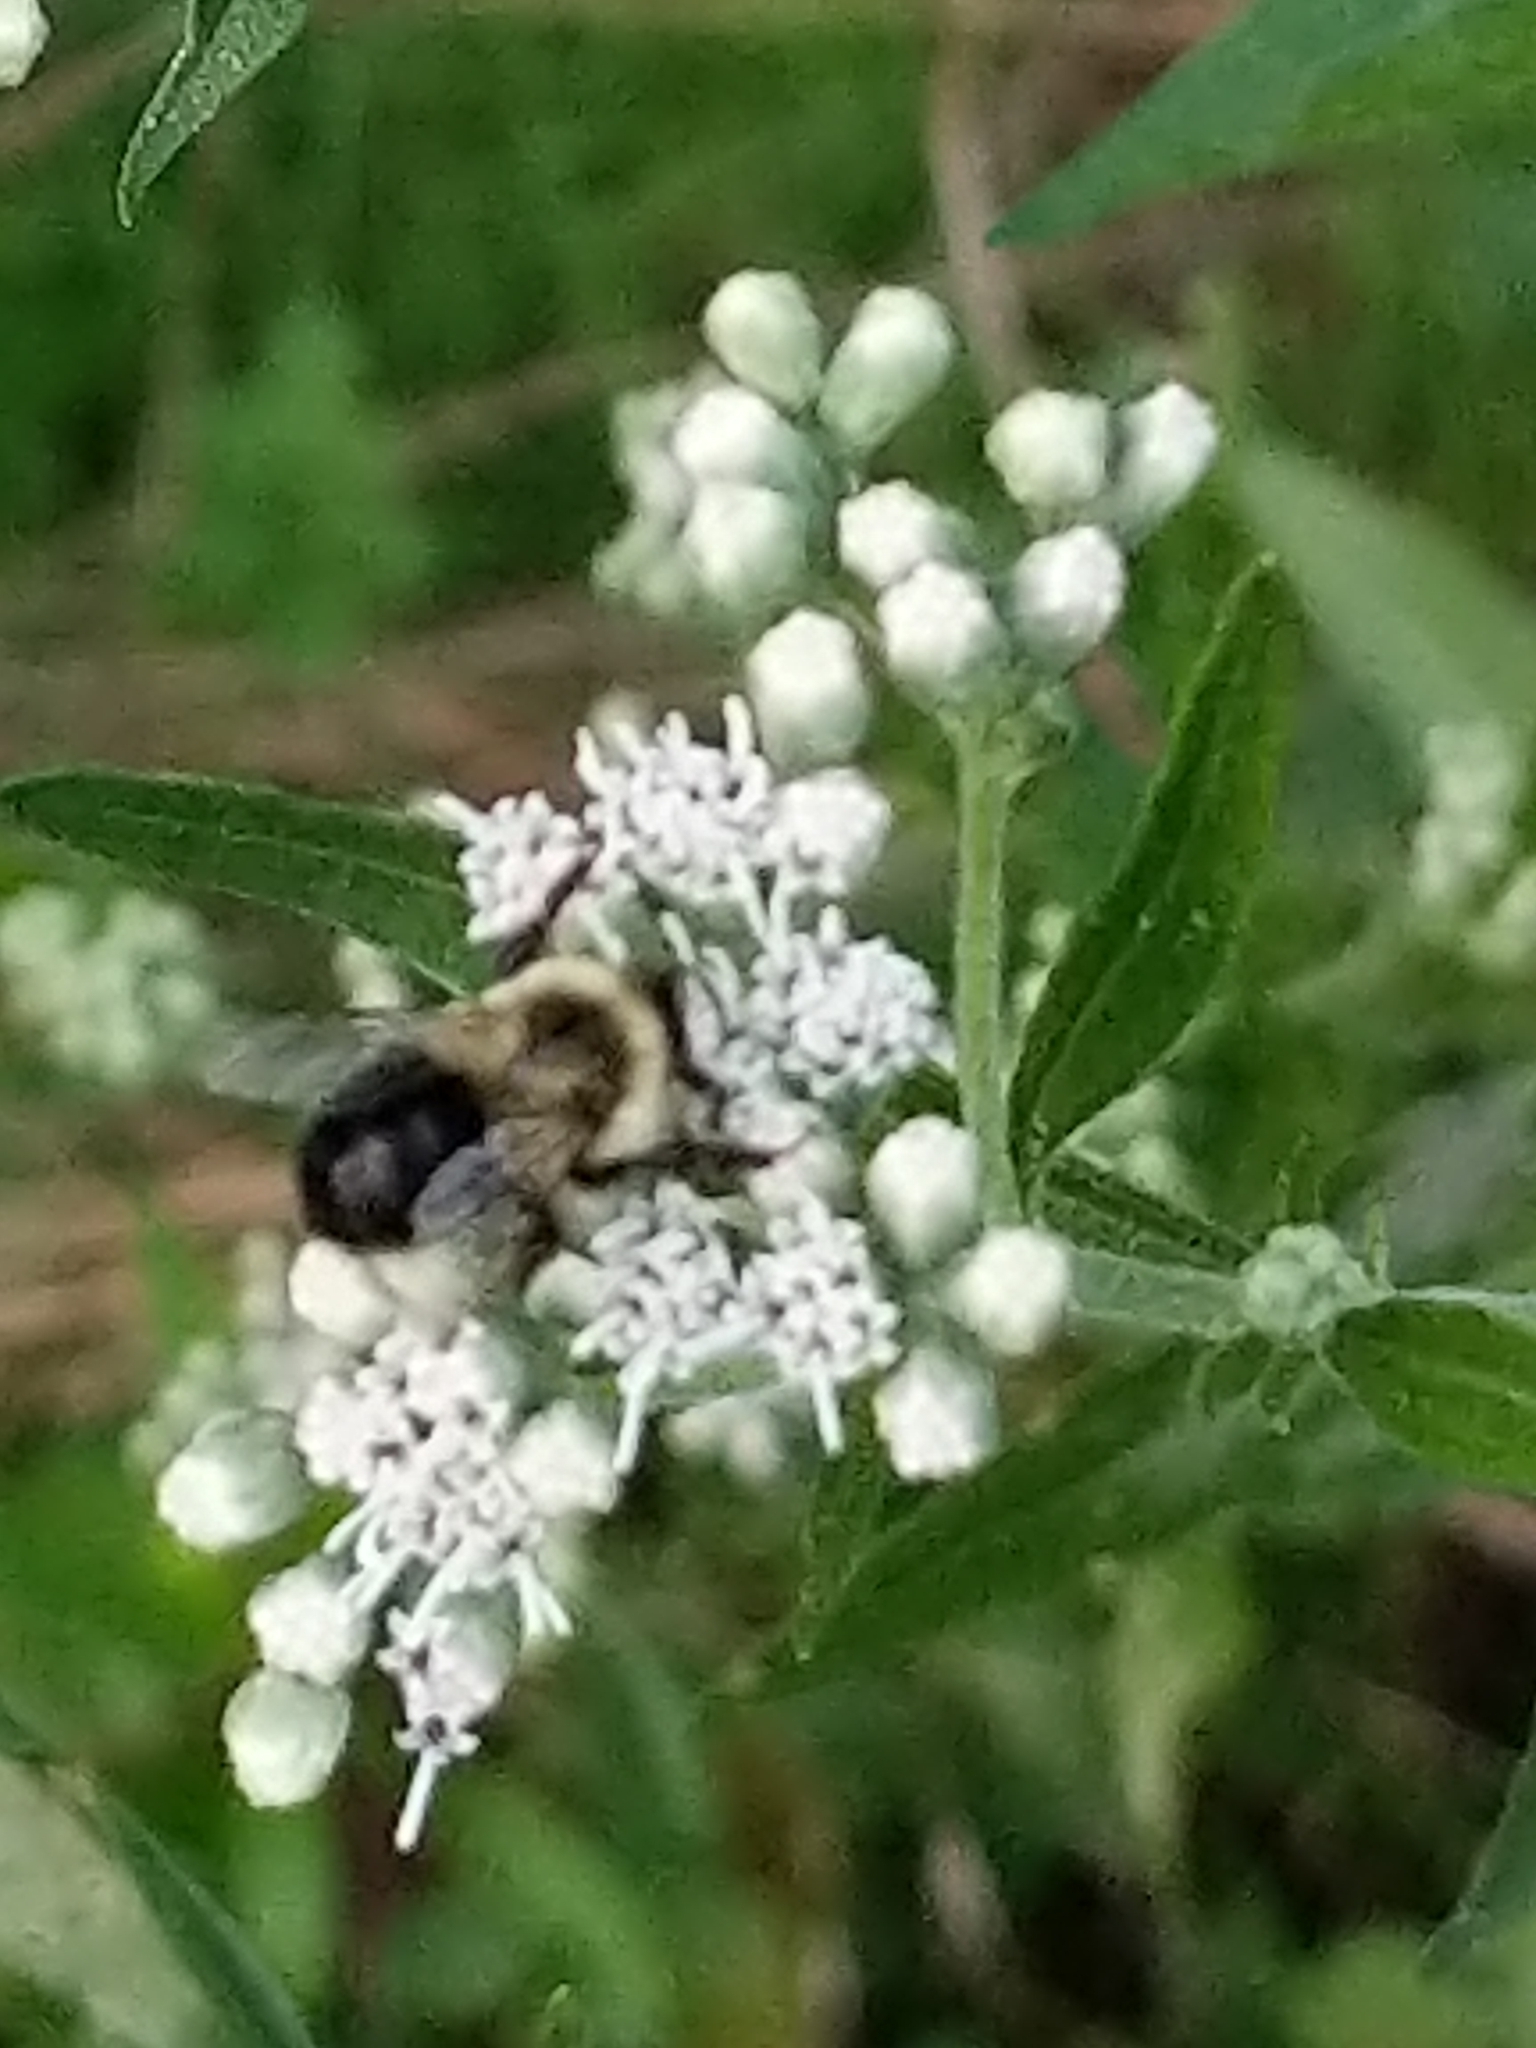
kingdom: Animalia
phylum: Arthropoda
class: Insecta
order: Hymenoptera
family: Apidae
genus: Bombus
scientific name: Bombus impatiens
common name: Common eastern bumble bee
